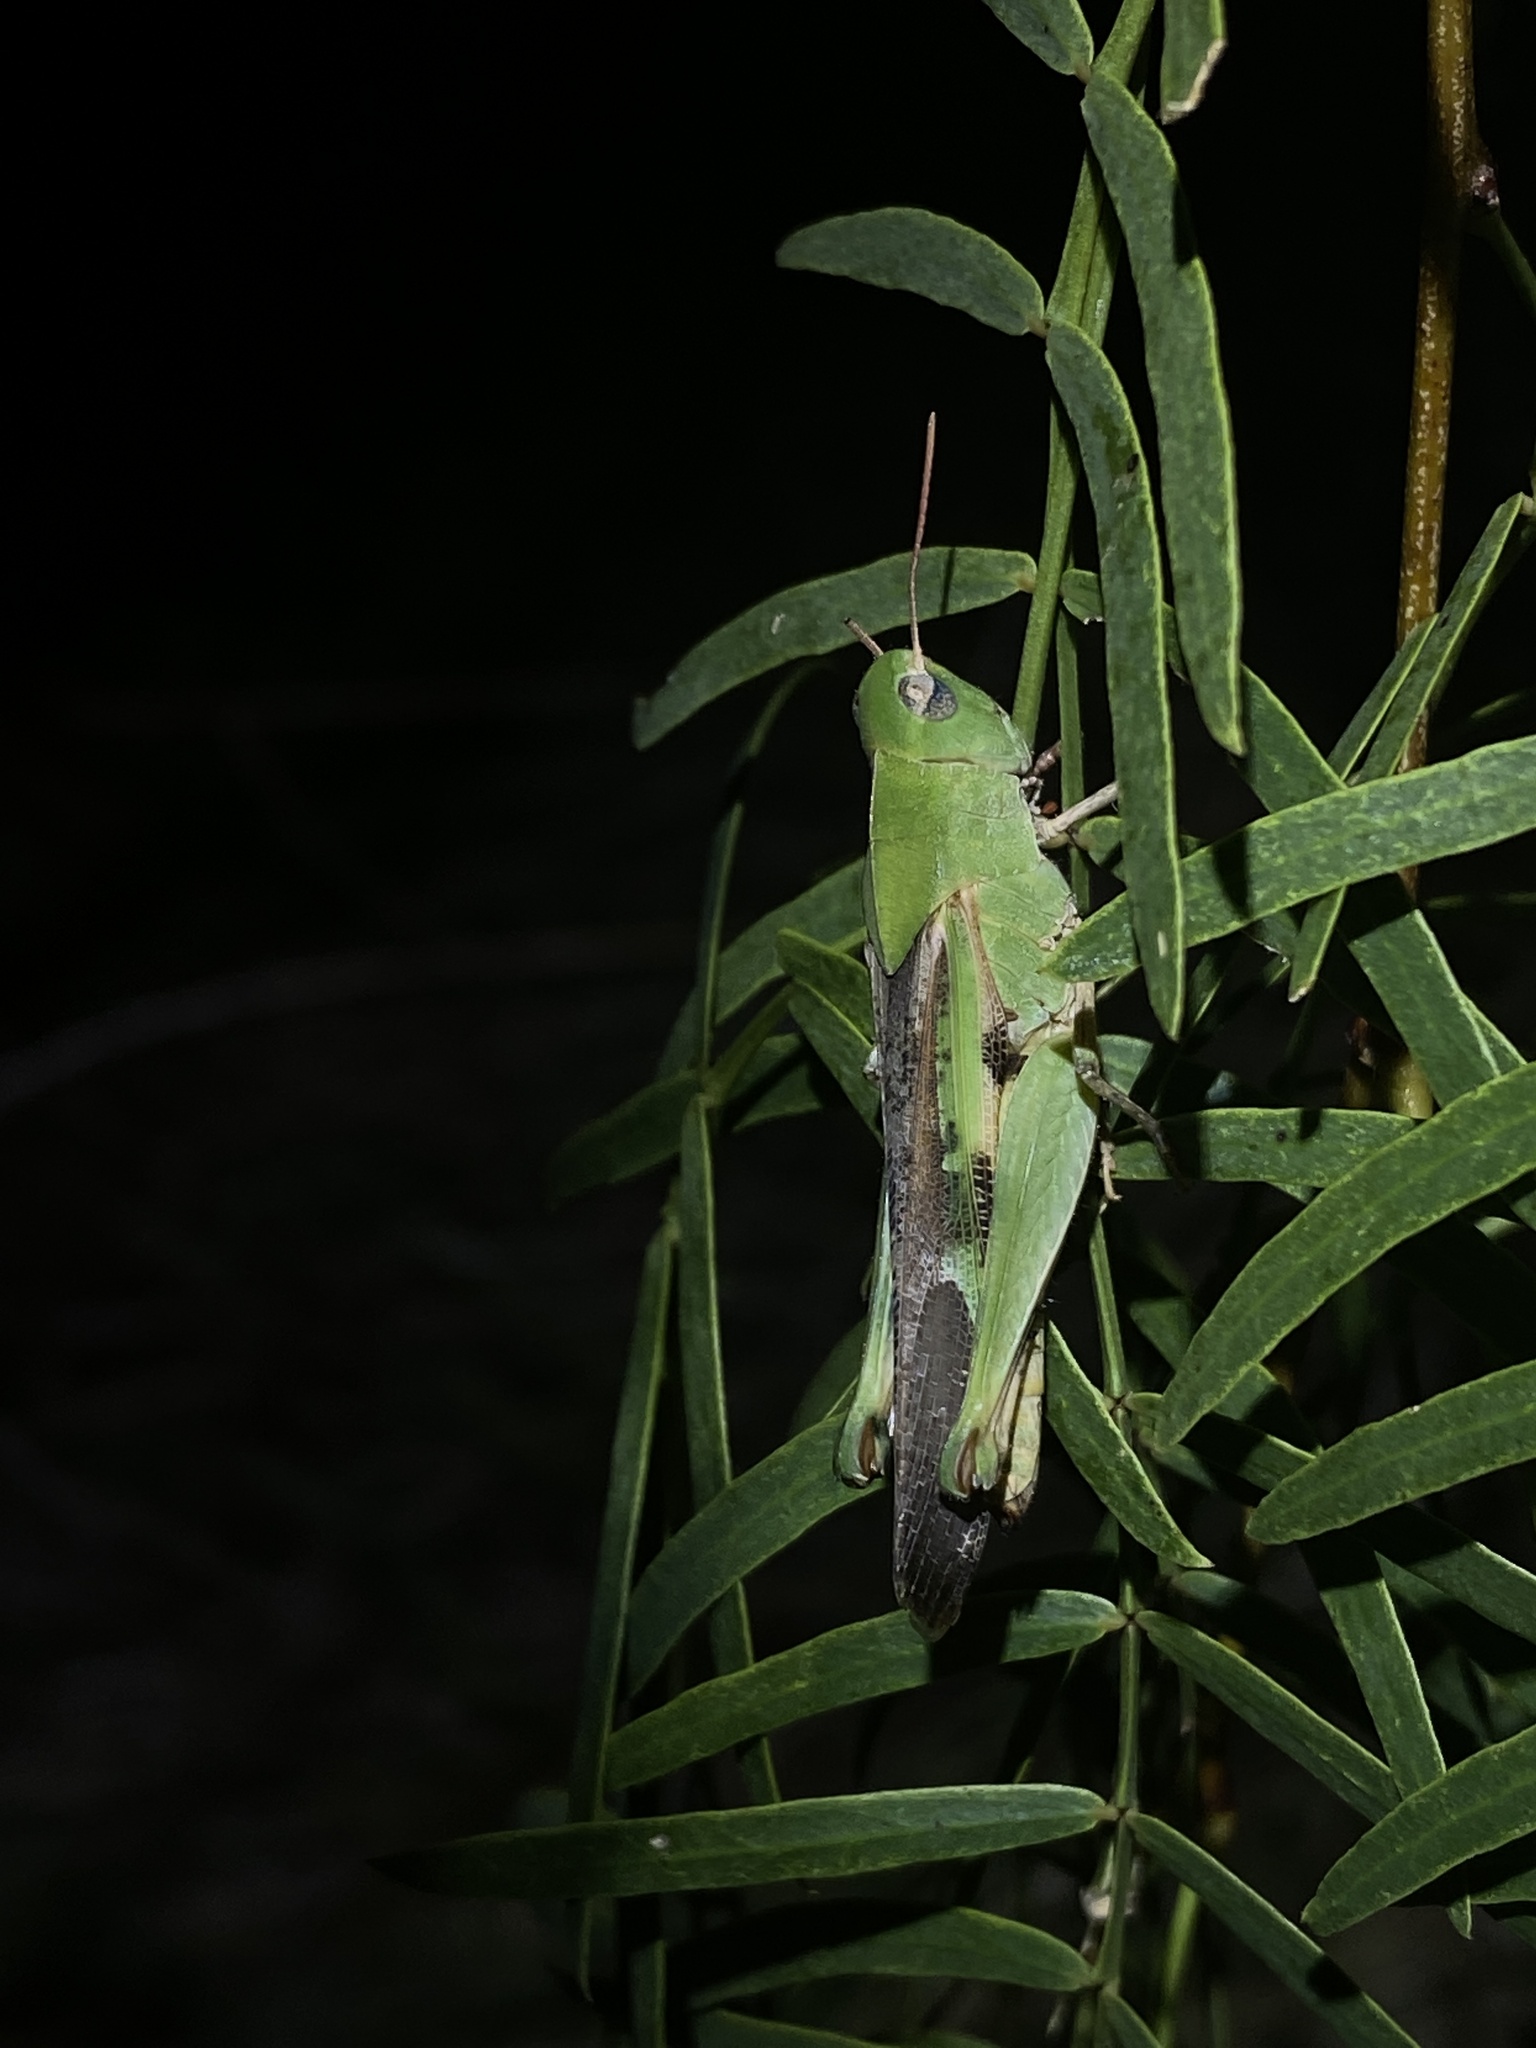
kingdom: Animalia
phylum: Arthropoda
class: Insecta
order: Orthoptera
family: Acrididae
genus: Chortophaga
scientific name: Chortophaga australior
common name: Southern green-striped grasshopper
